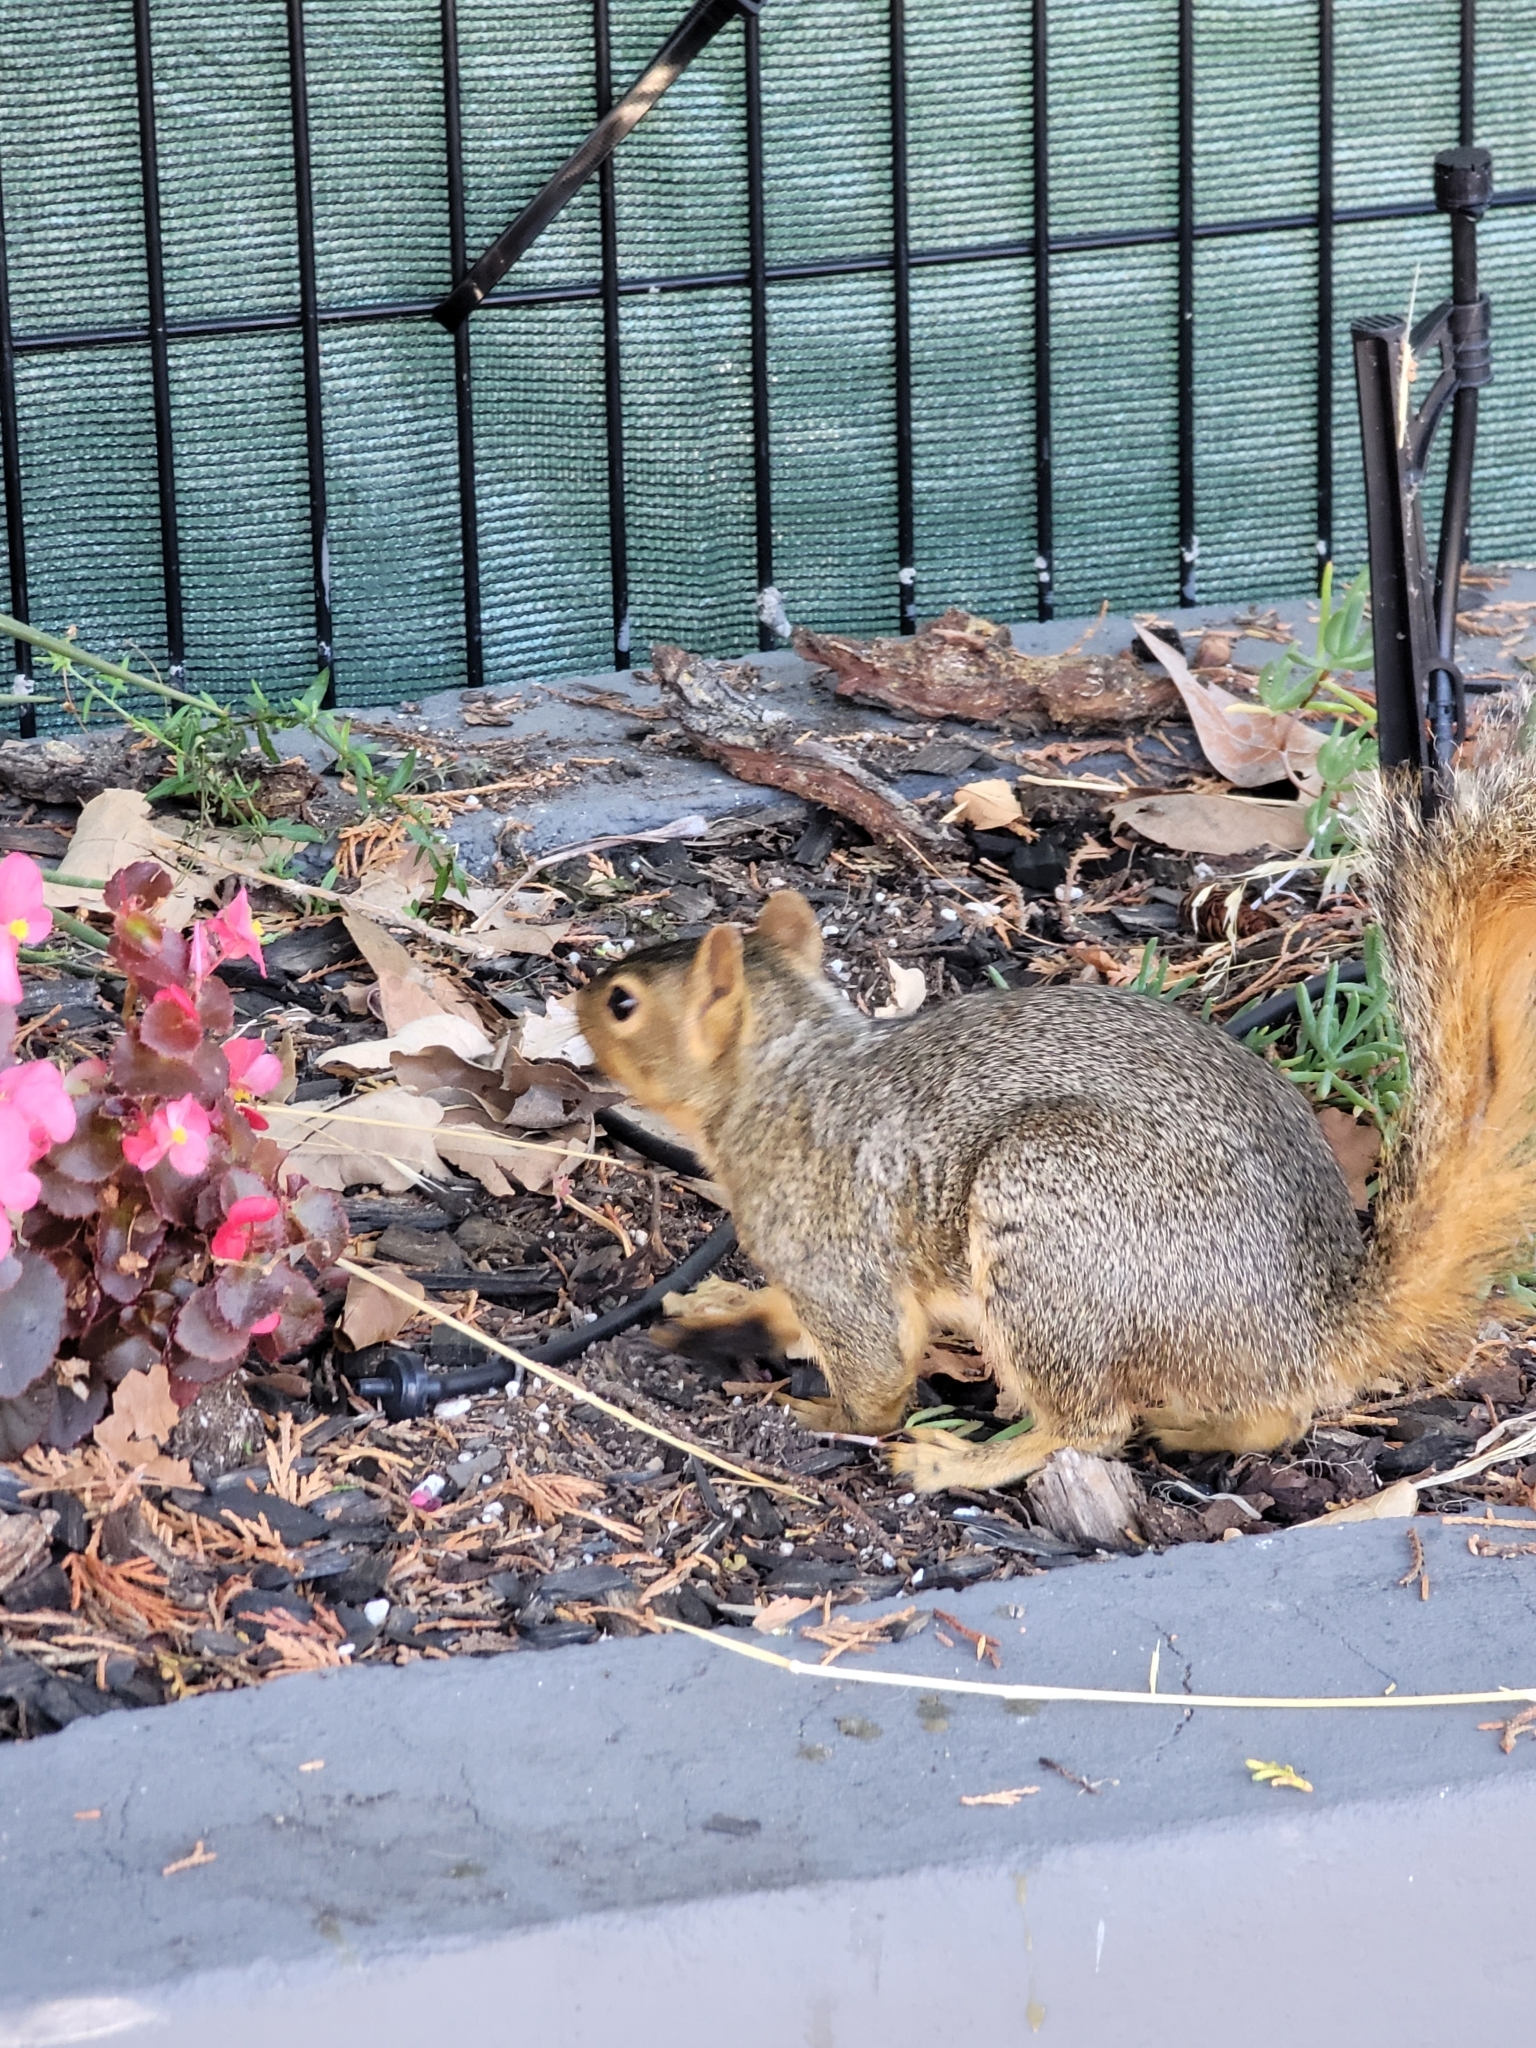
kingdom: Animalia
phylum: Chordata
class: Mammalia
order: Rodentia
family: Sciuridae
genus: Sciurus
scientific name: Sciurus niger
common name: Fox squirrel
